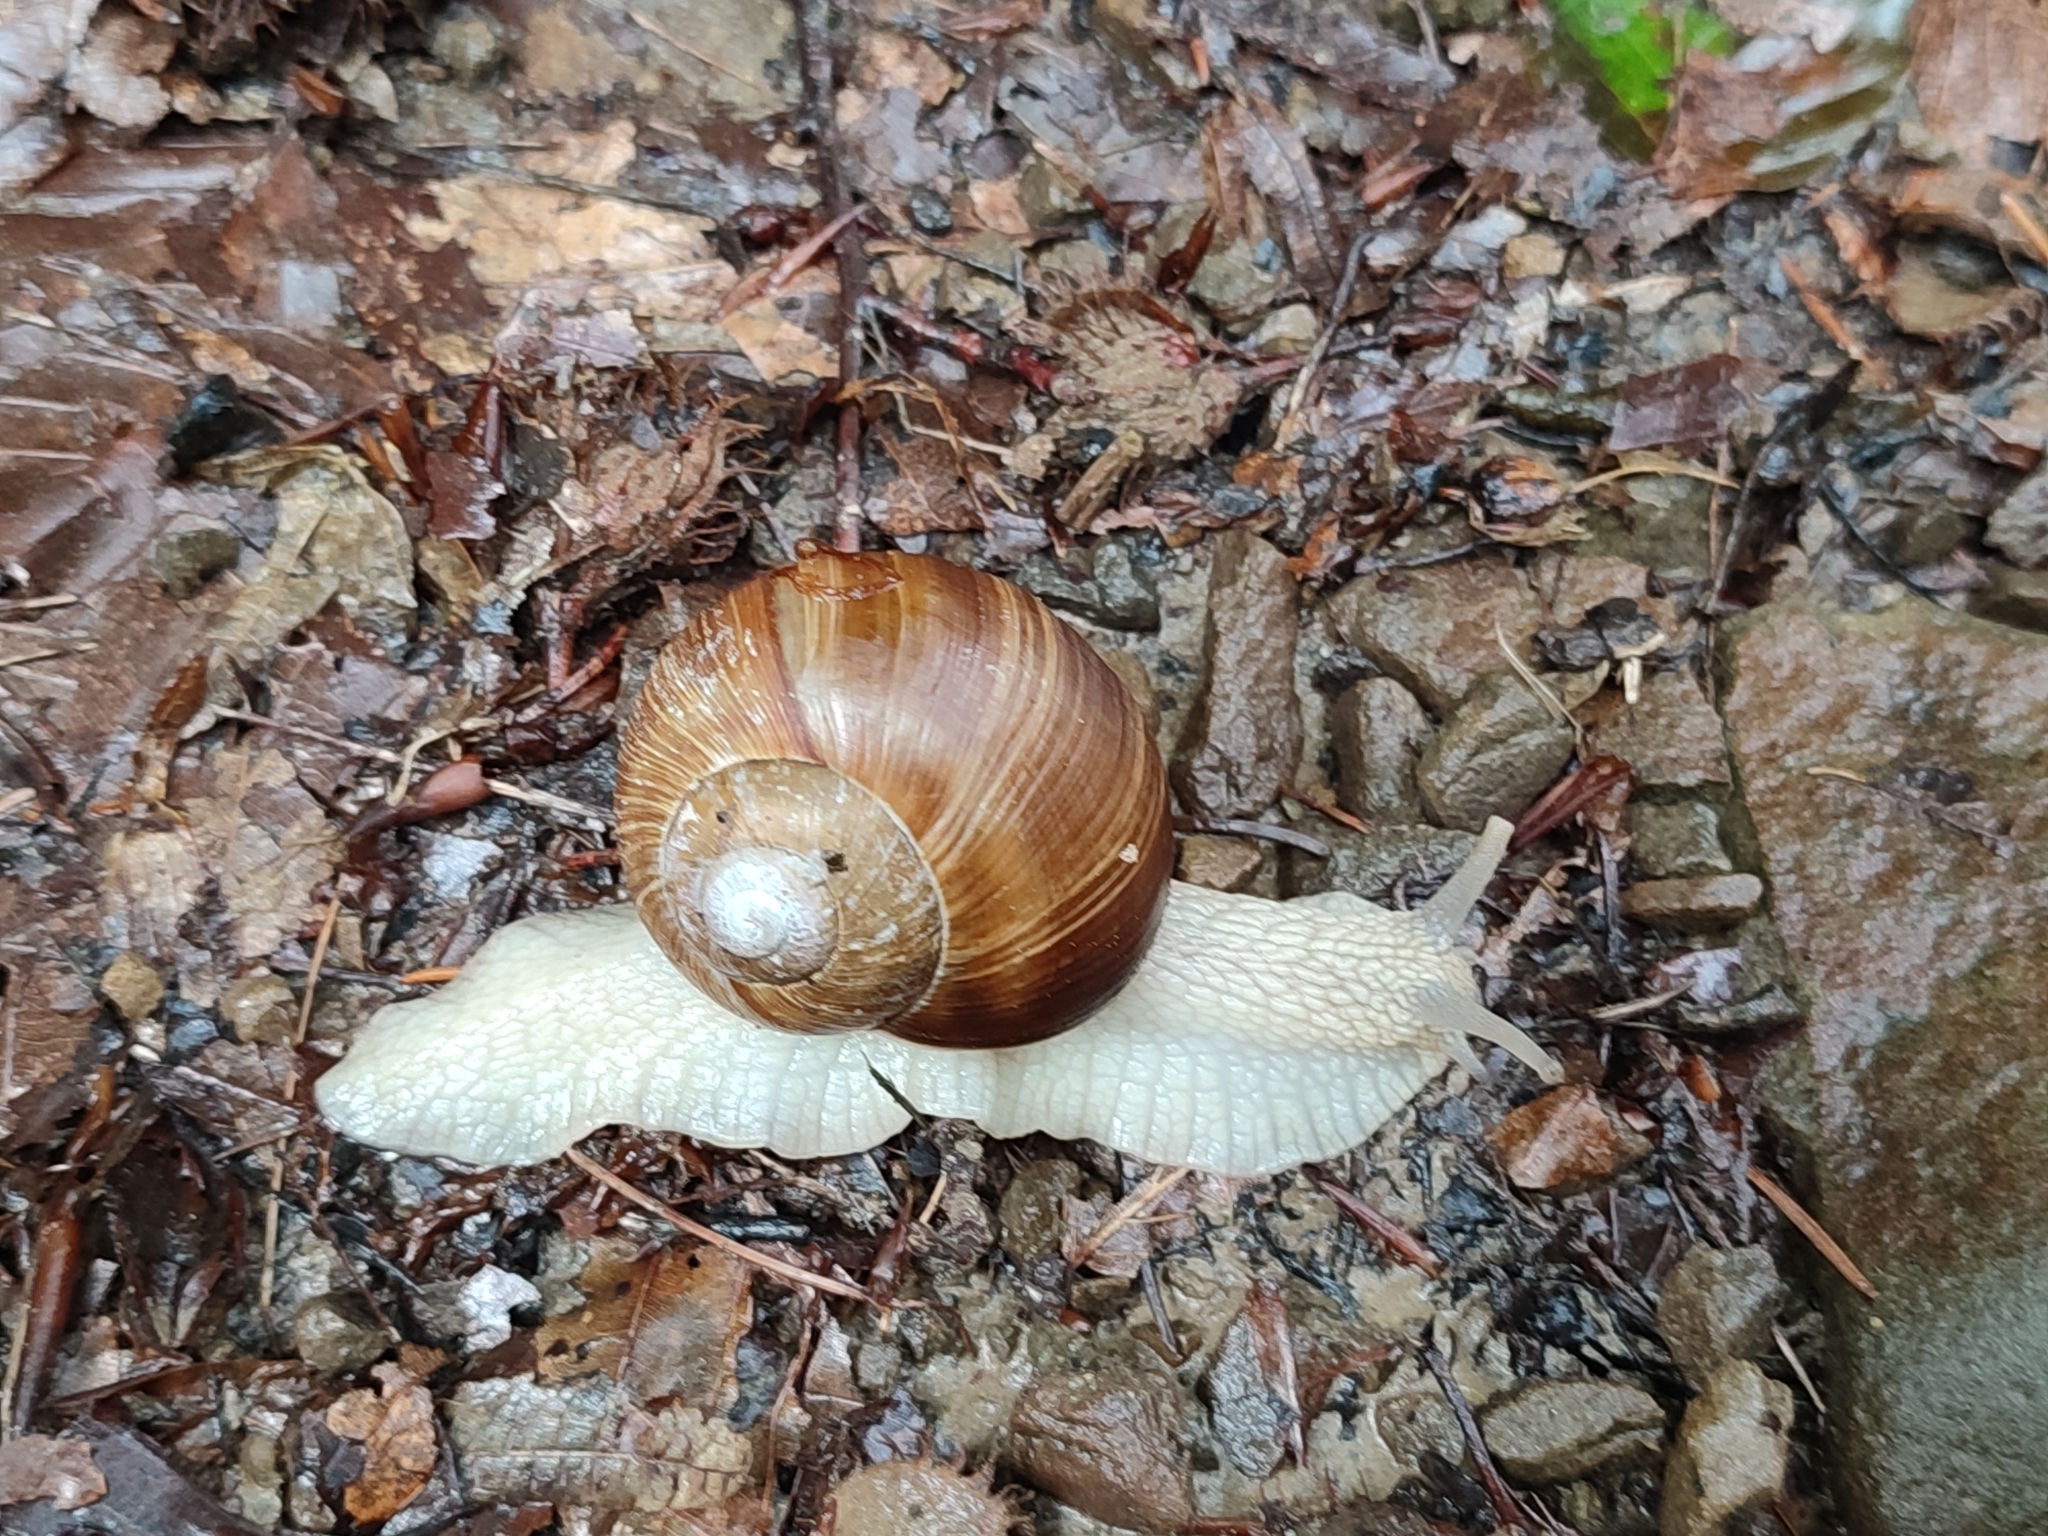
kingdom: Animalia
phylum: Mollusca
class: Gastropoda
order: Stylommatophora
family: Helicidae
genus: Helix
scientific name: Helix pomatia
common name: Roman snail
